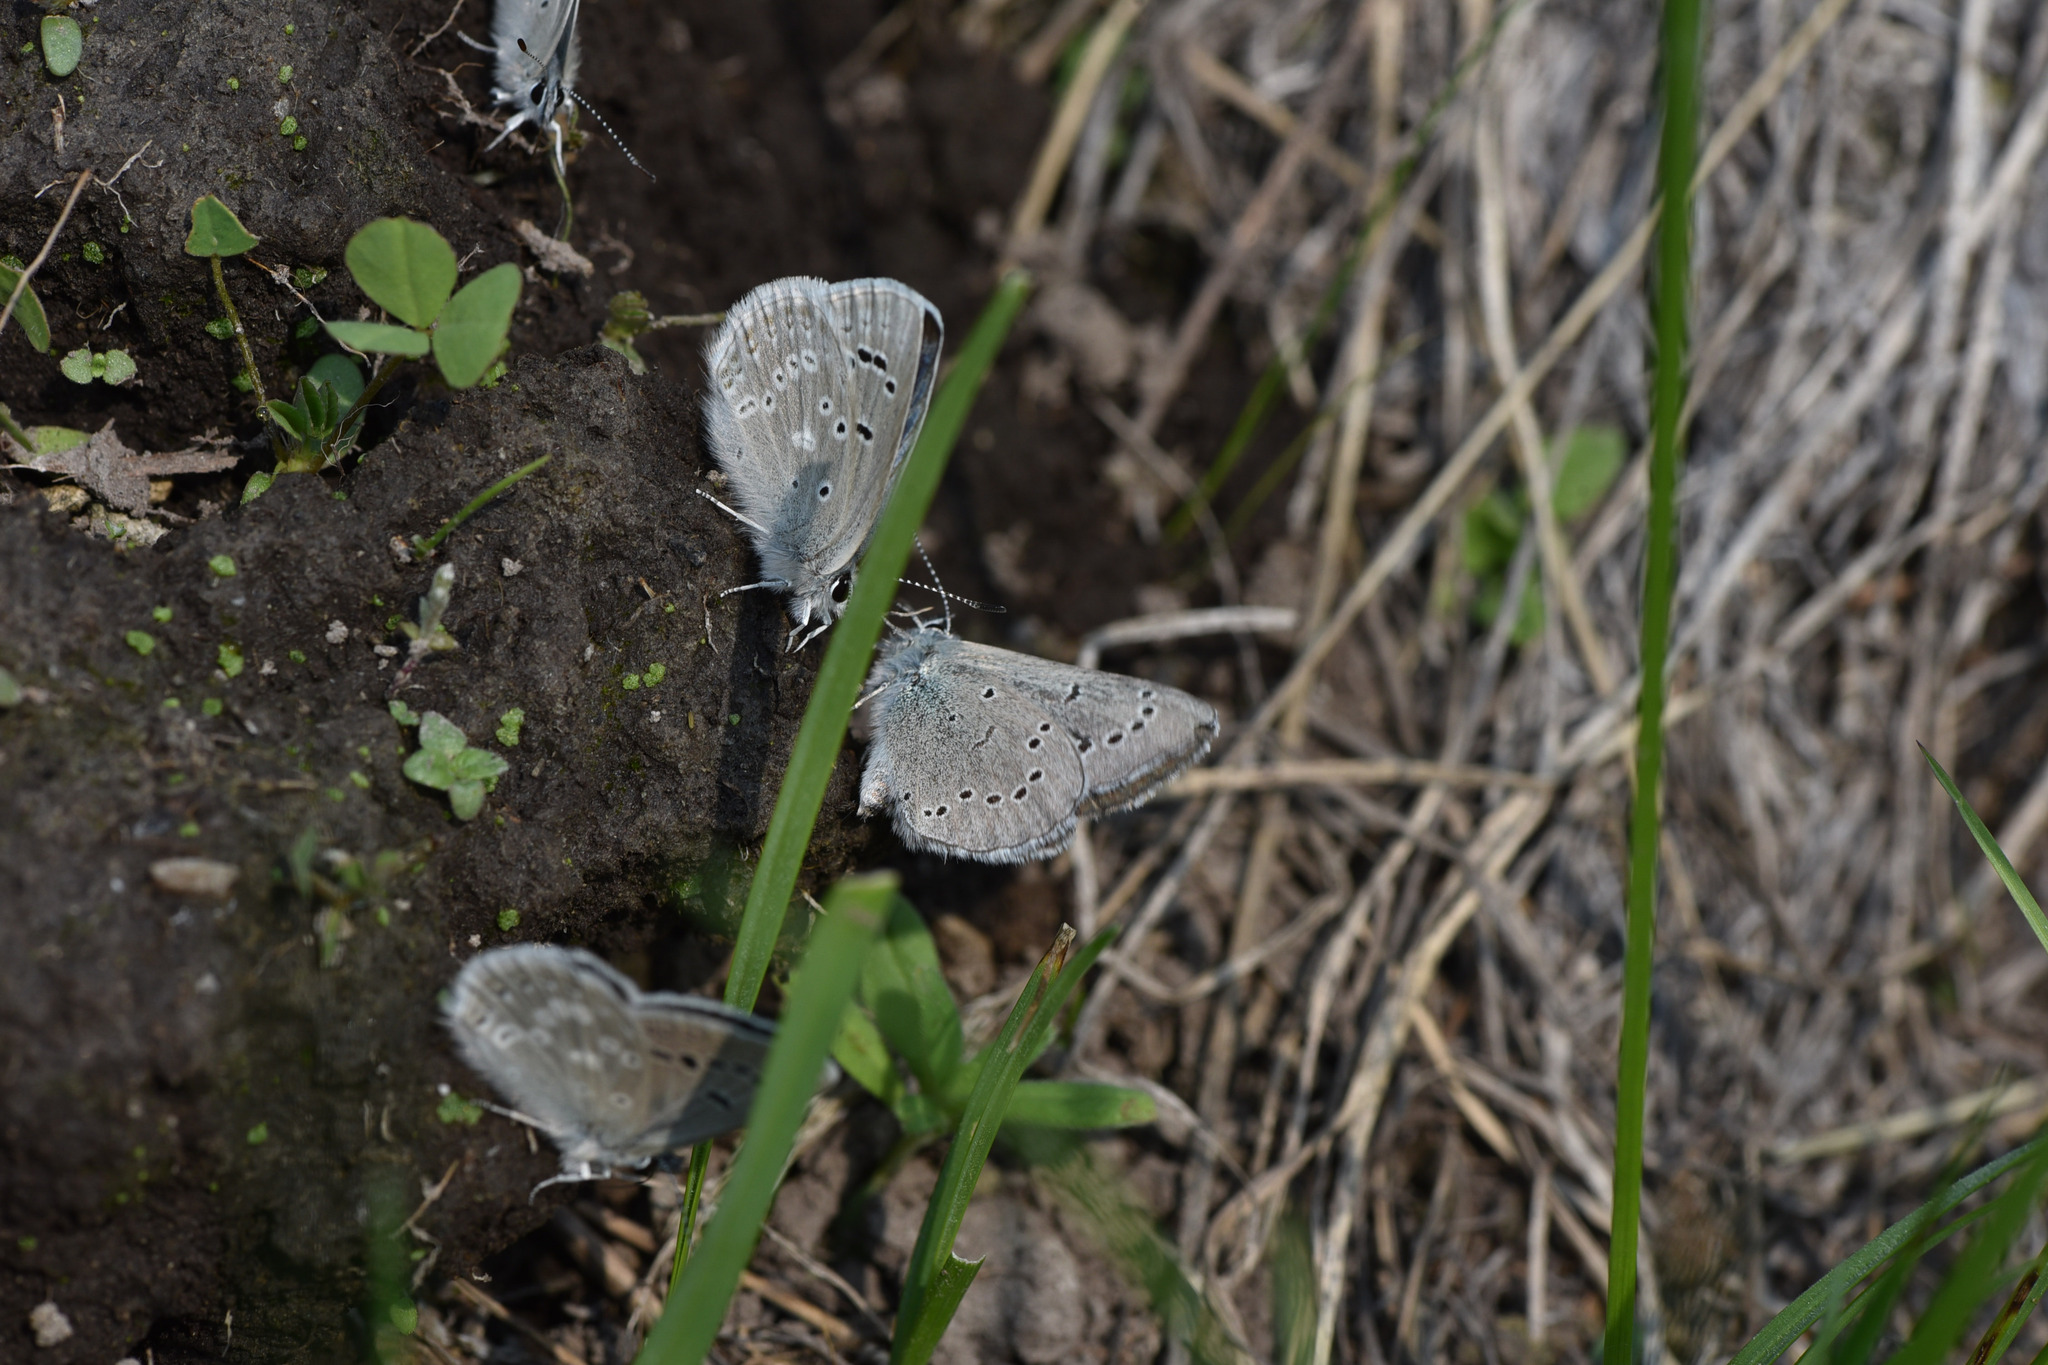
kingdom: Animalia
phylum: Arthropoda
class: Insecta
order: Lepidoptera
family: Lycaenidae
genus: Glaucopsyche
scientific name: Glaucopsyche lygdamus
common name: Silvery blue
